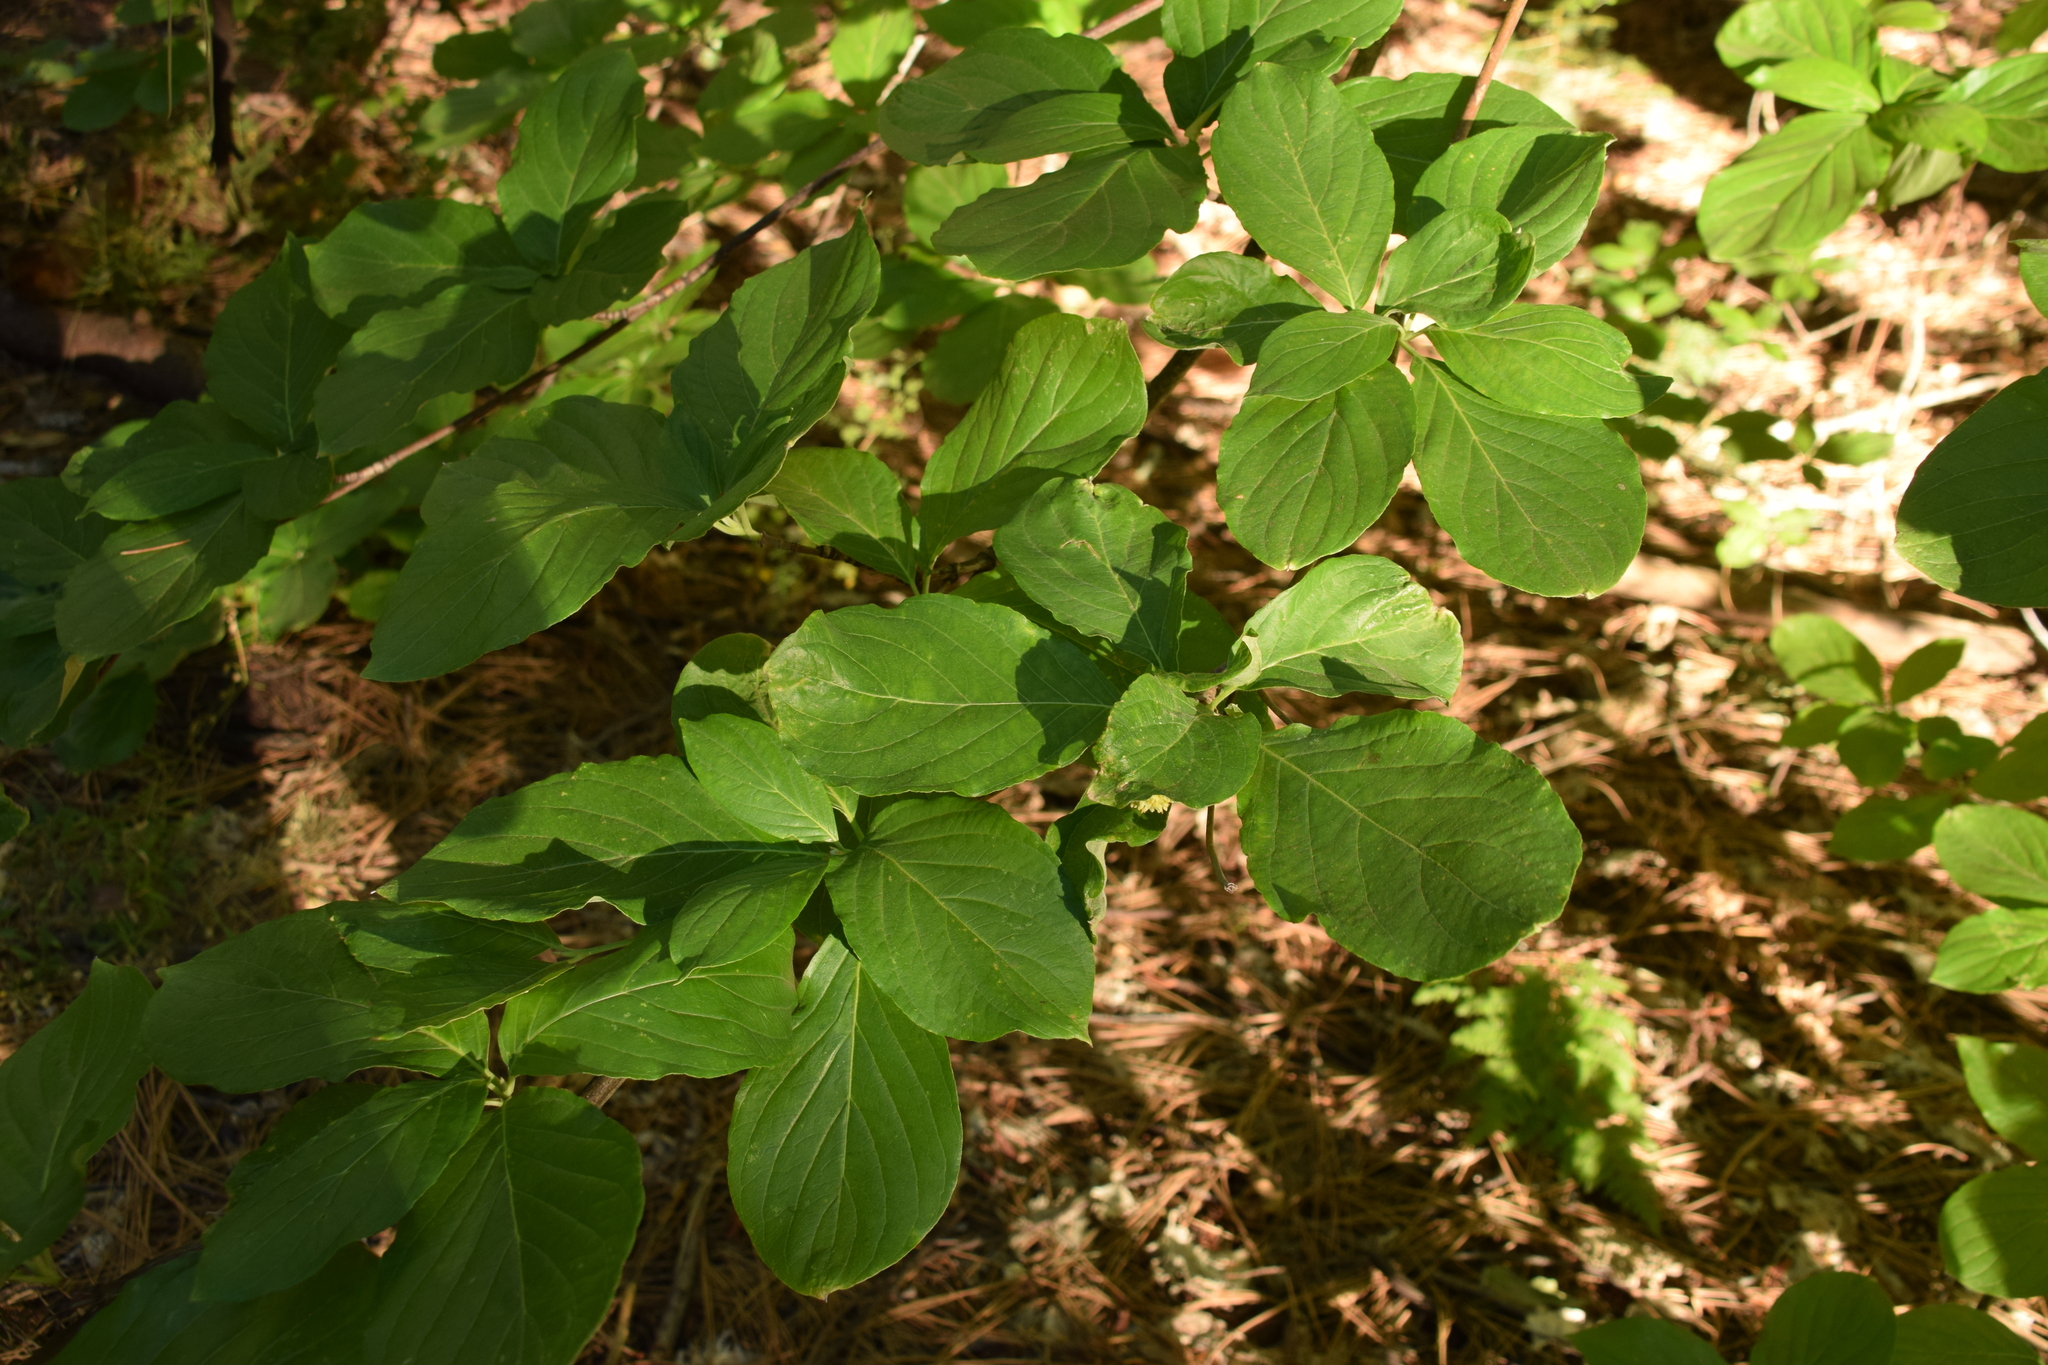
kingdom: Plantae
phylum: Tracheophyta
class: Magnoliopsida
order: Gentianales
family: Rubiaceae
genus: Cephalanthus
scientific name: Cephalanthus occidentalis
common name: Button-willow
